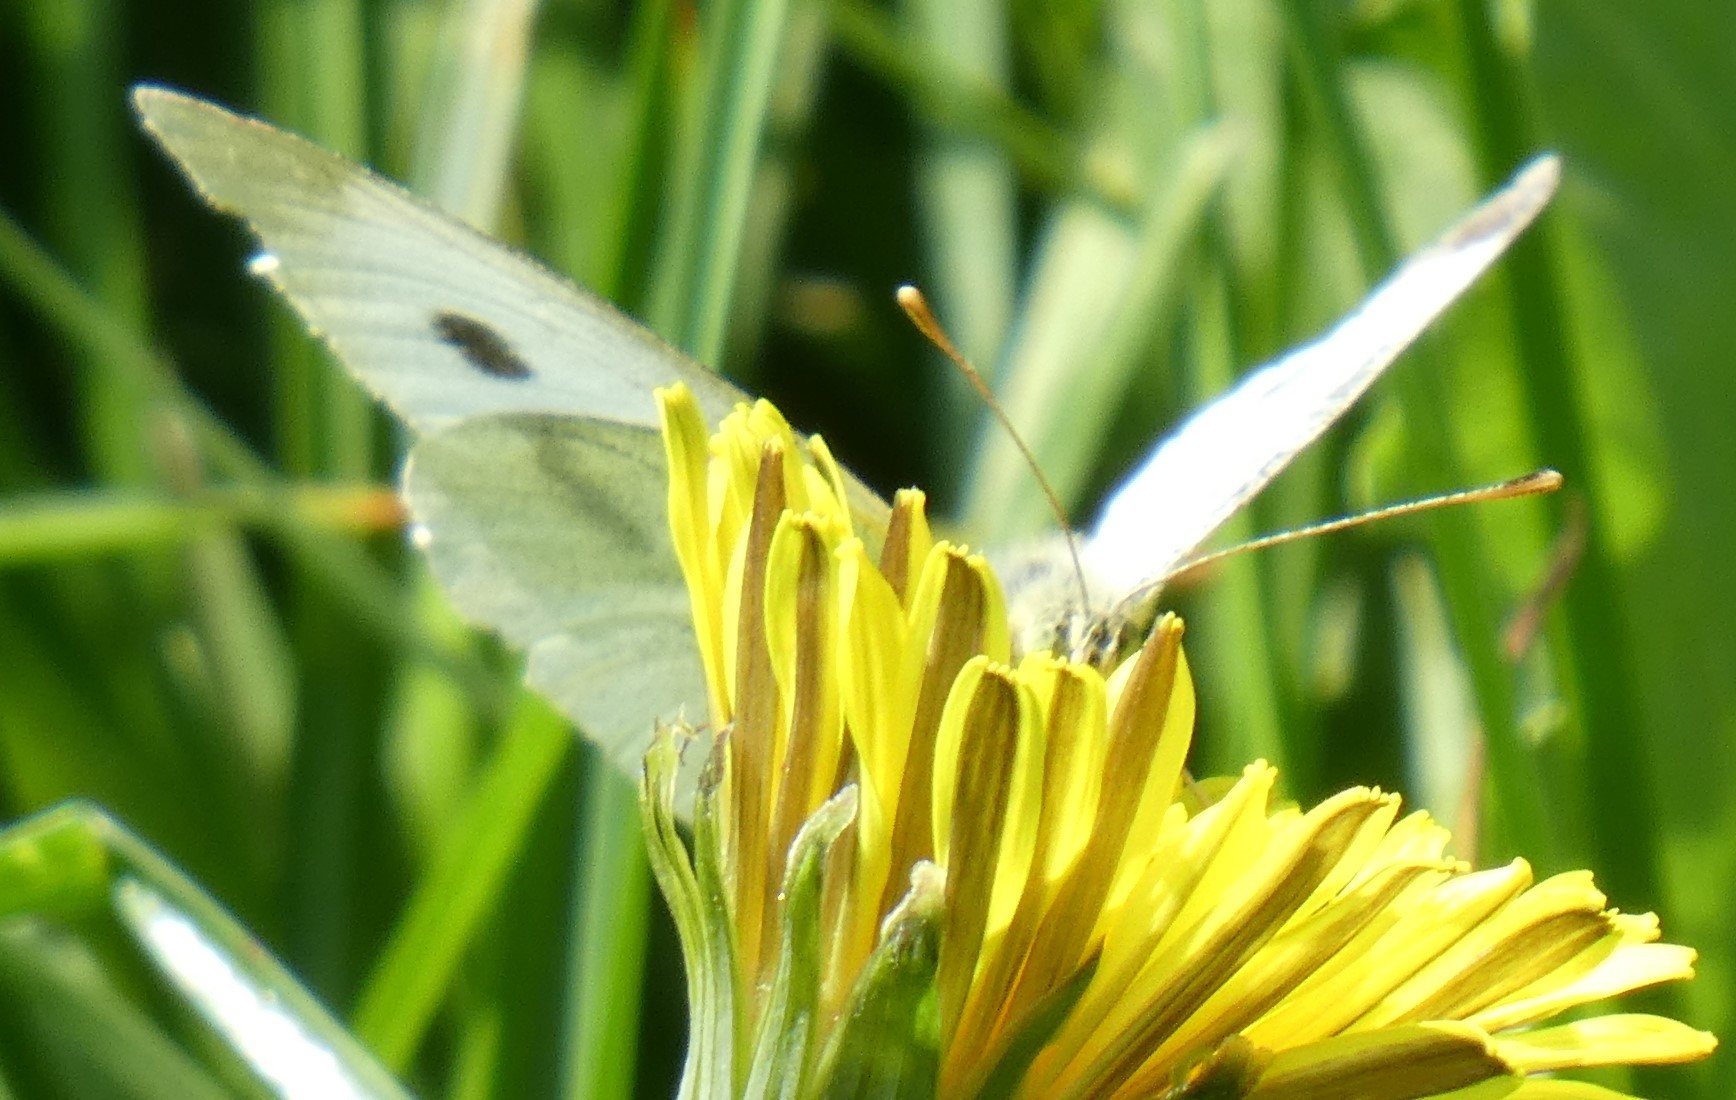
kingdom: Animalia
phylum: Arthropoda
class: Insecta
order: Lepidoptera
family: Pieridae
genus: Pieris
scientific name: Pieris rapae
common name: Small white
